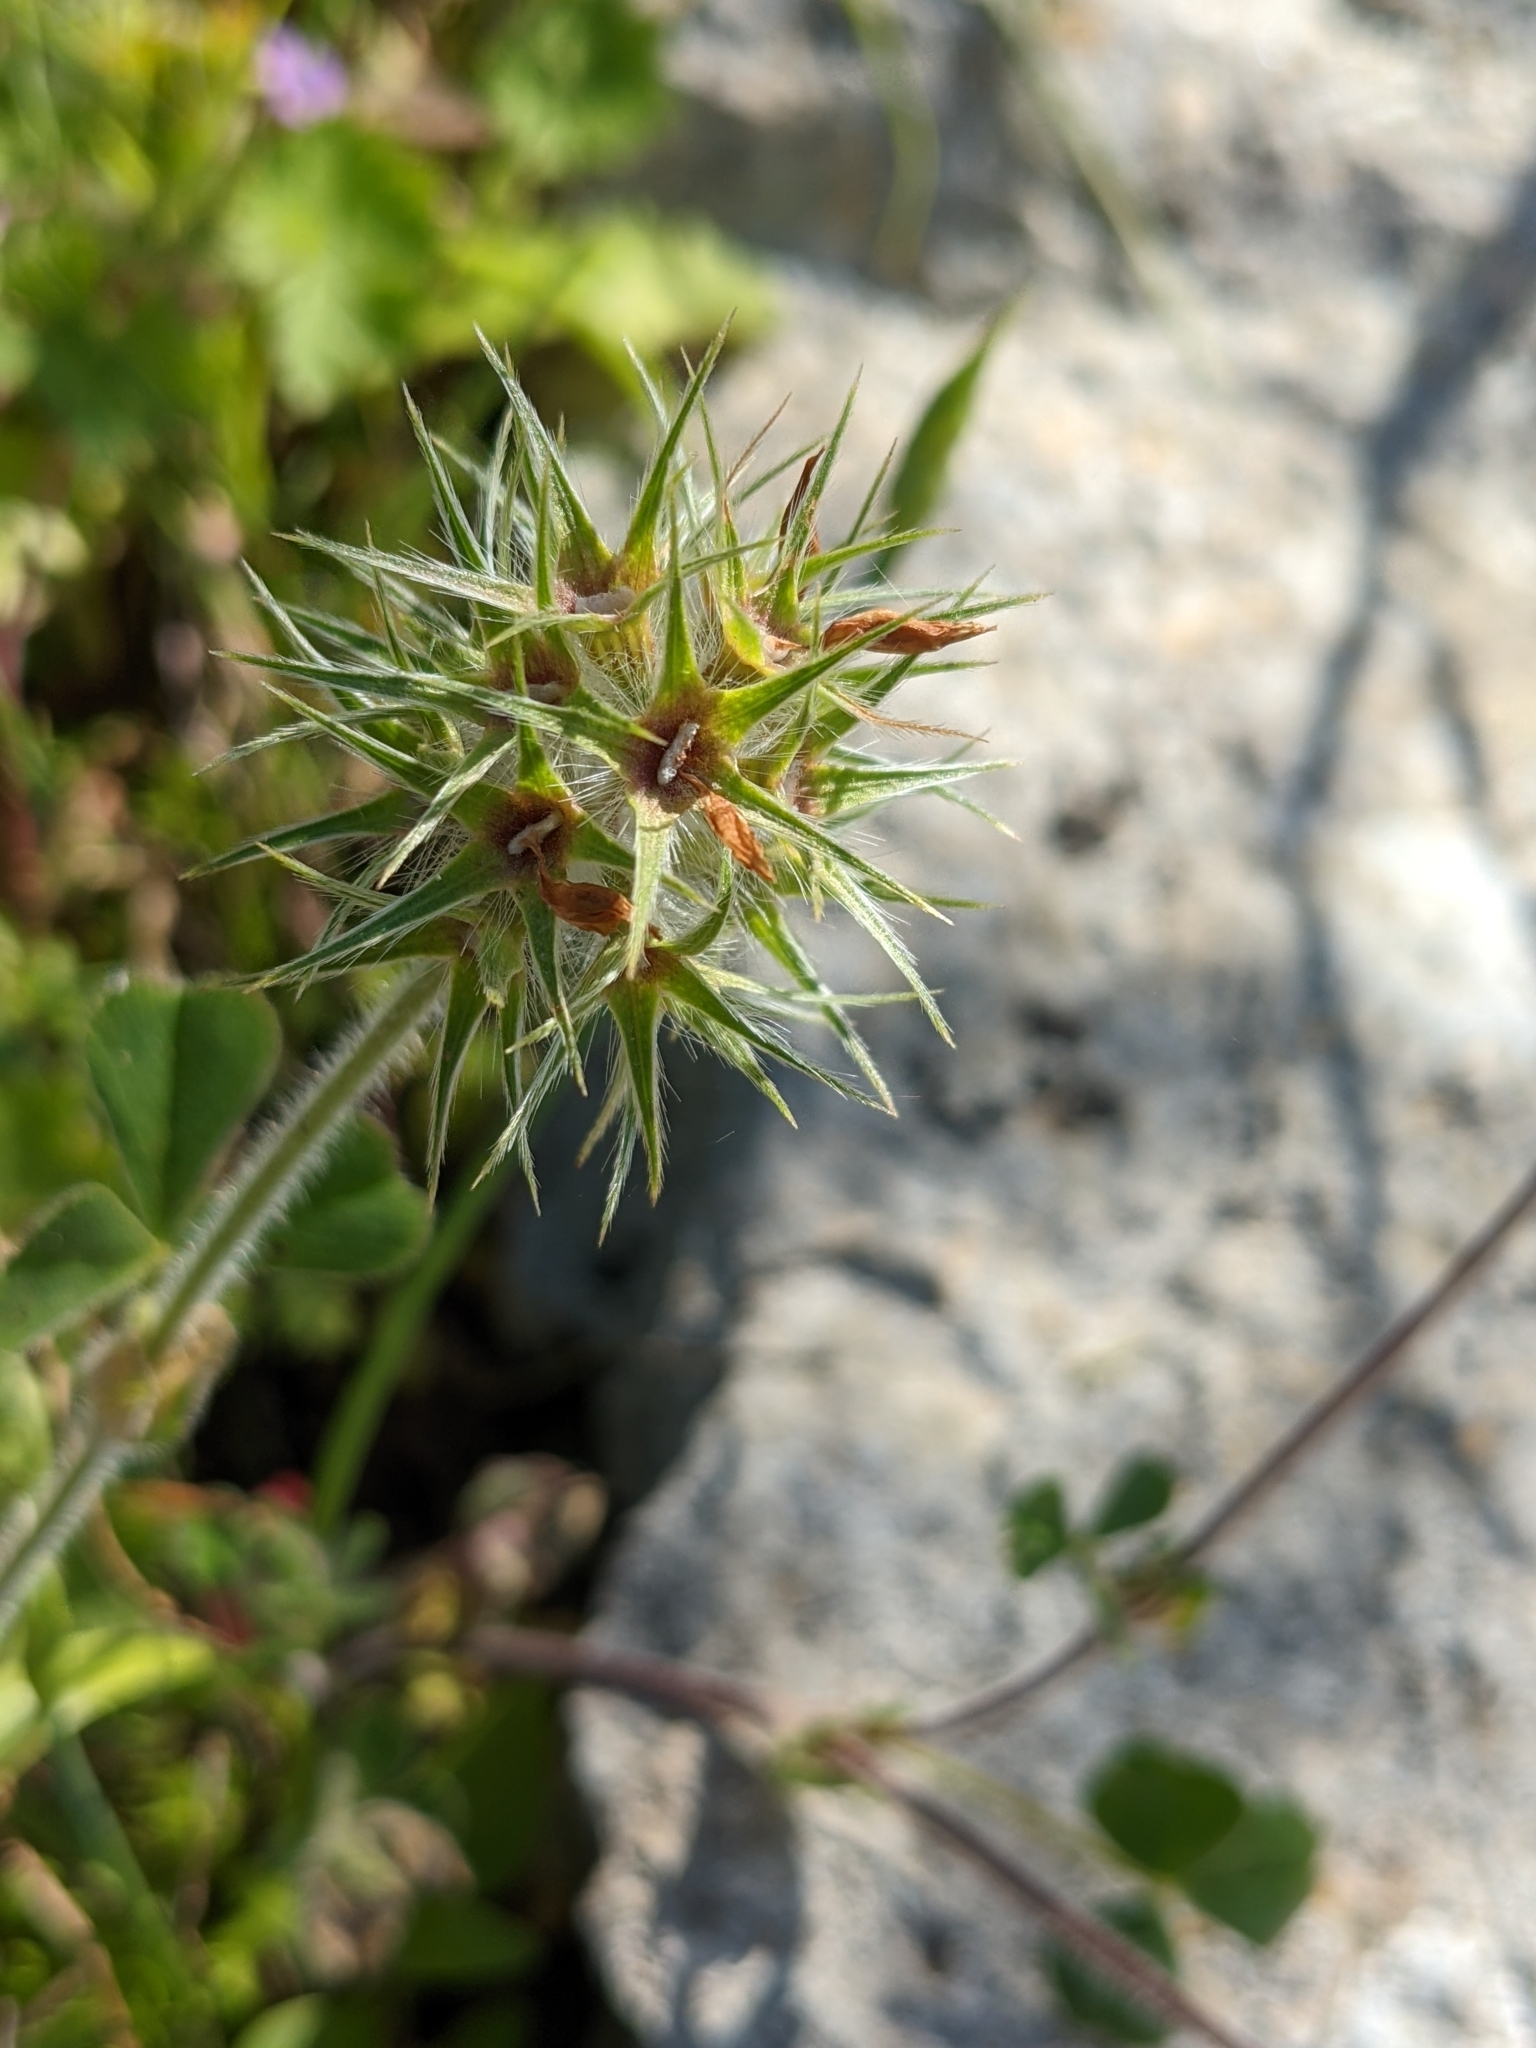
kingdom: Plantae
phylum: Tracheophyta
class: Magnoliopsida
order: Fabales
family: Fabaceae
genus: Trifolium
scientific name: Trifolium stellatum
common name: Starry clover
